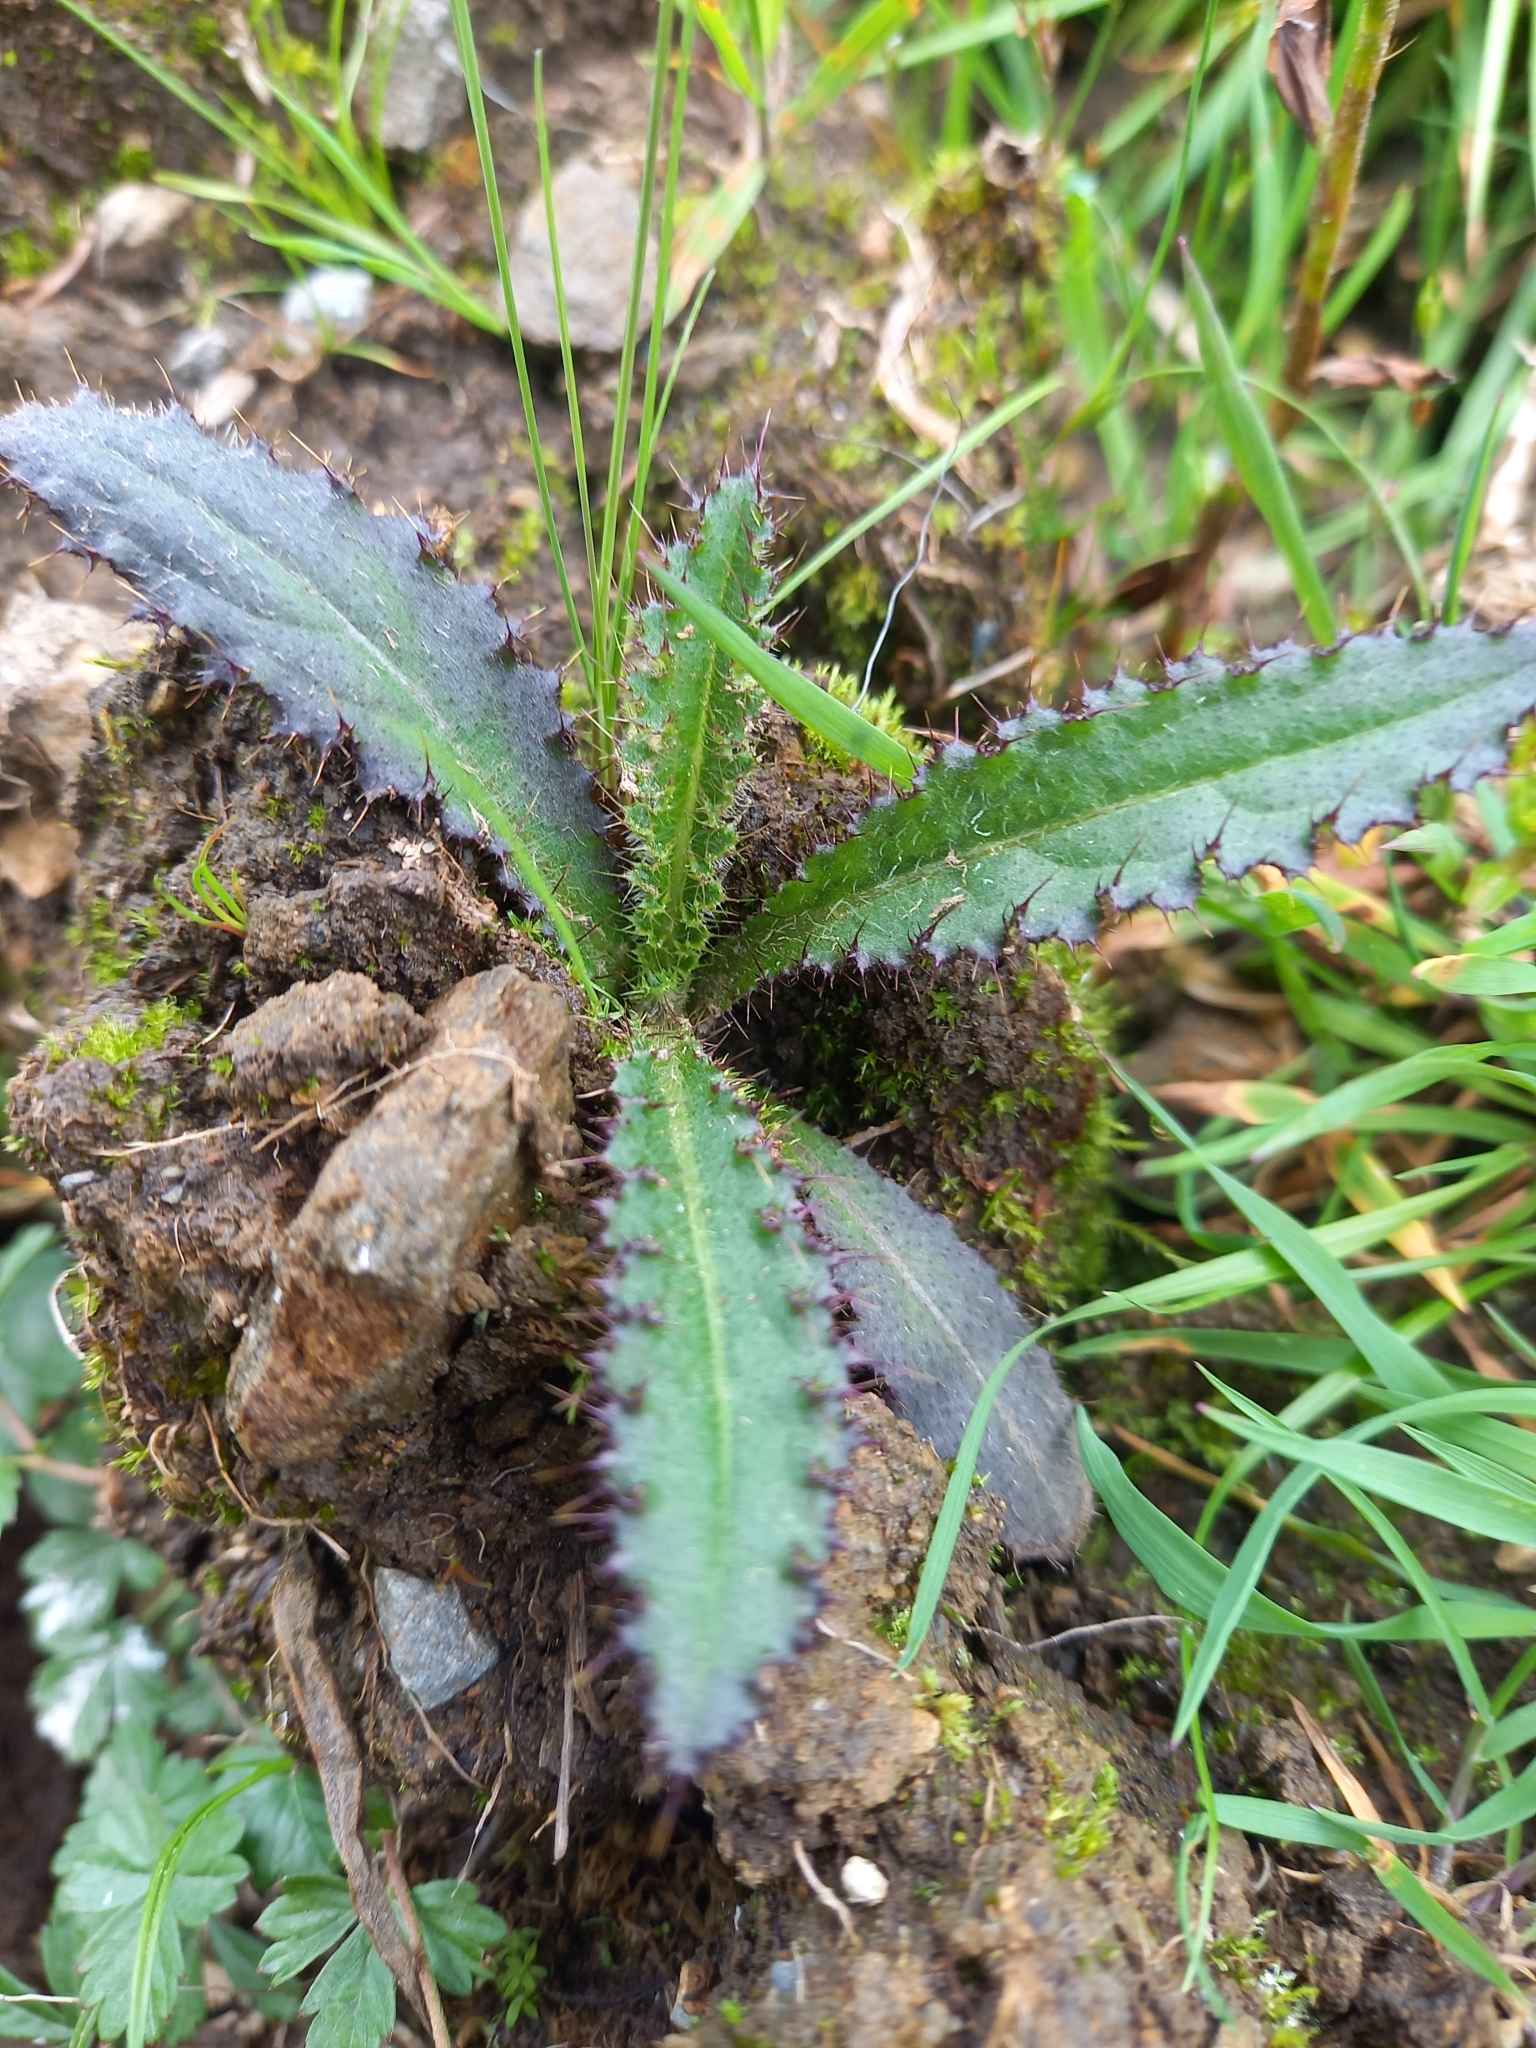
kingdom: Plantae
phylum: Tracheophyta
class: Magnoliopsida
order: Asterales
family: Asteraceae
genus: Cirsium
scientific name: Cirsium palustre
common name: Marsh thistle
